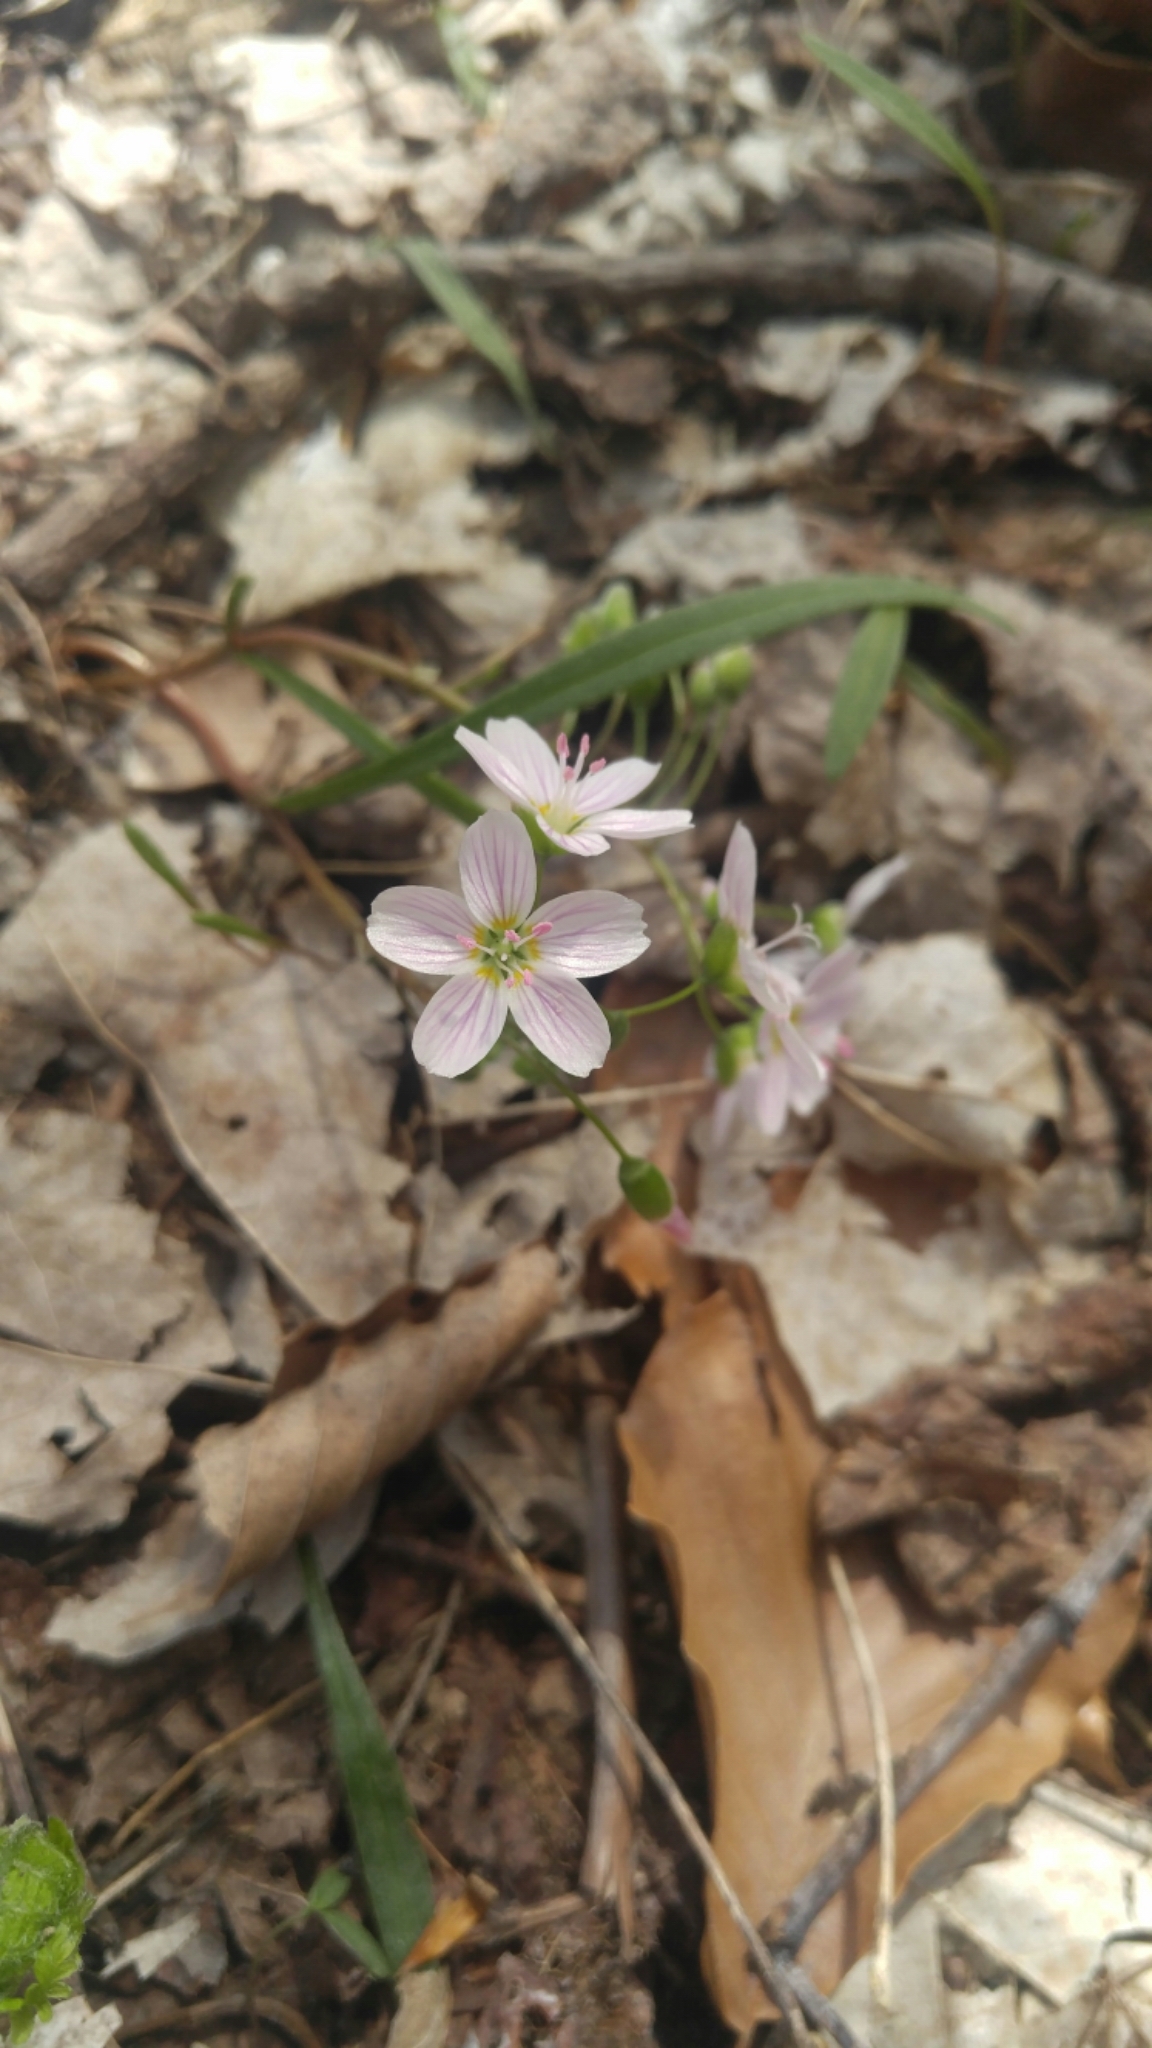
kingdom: Plantae
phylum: Tracheophyta
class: Magnoliopsida
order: Caryophyllales
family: Montiaceae
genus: Claytonia
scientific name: Claytonia virginica
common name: Virginia springbeauty
